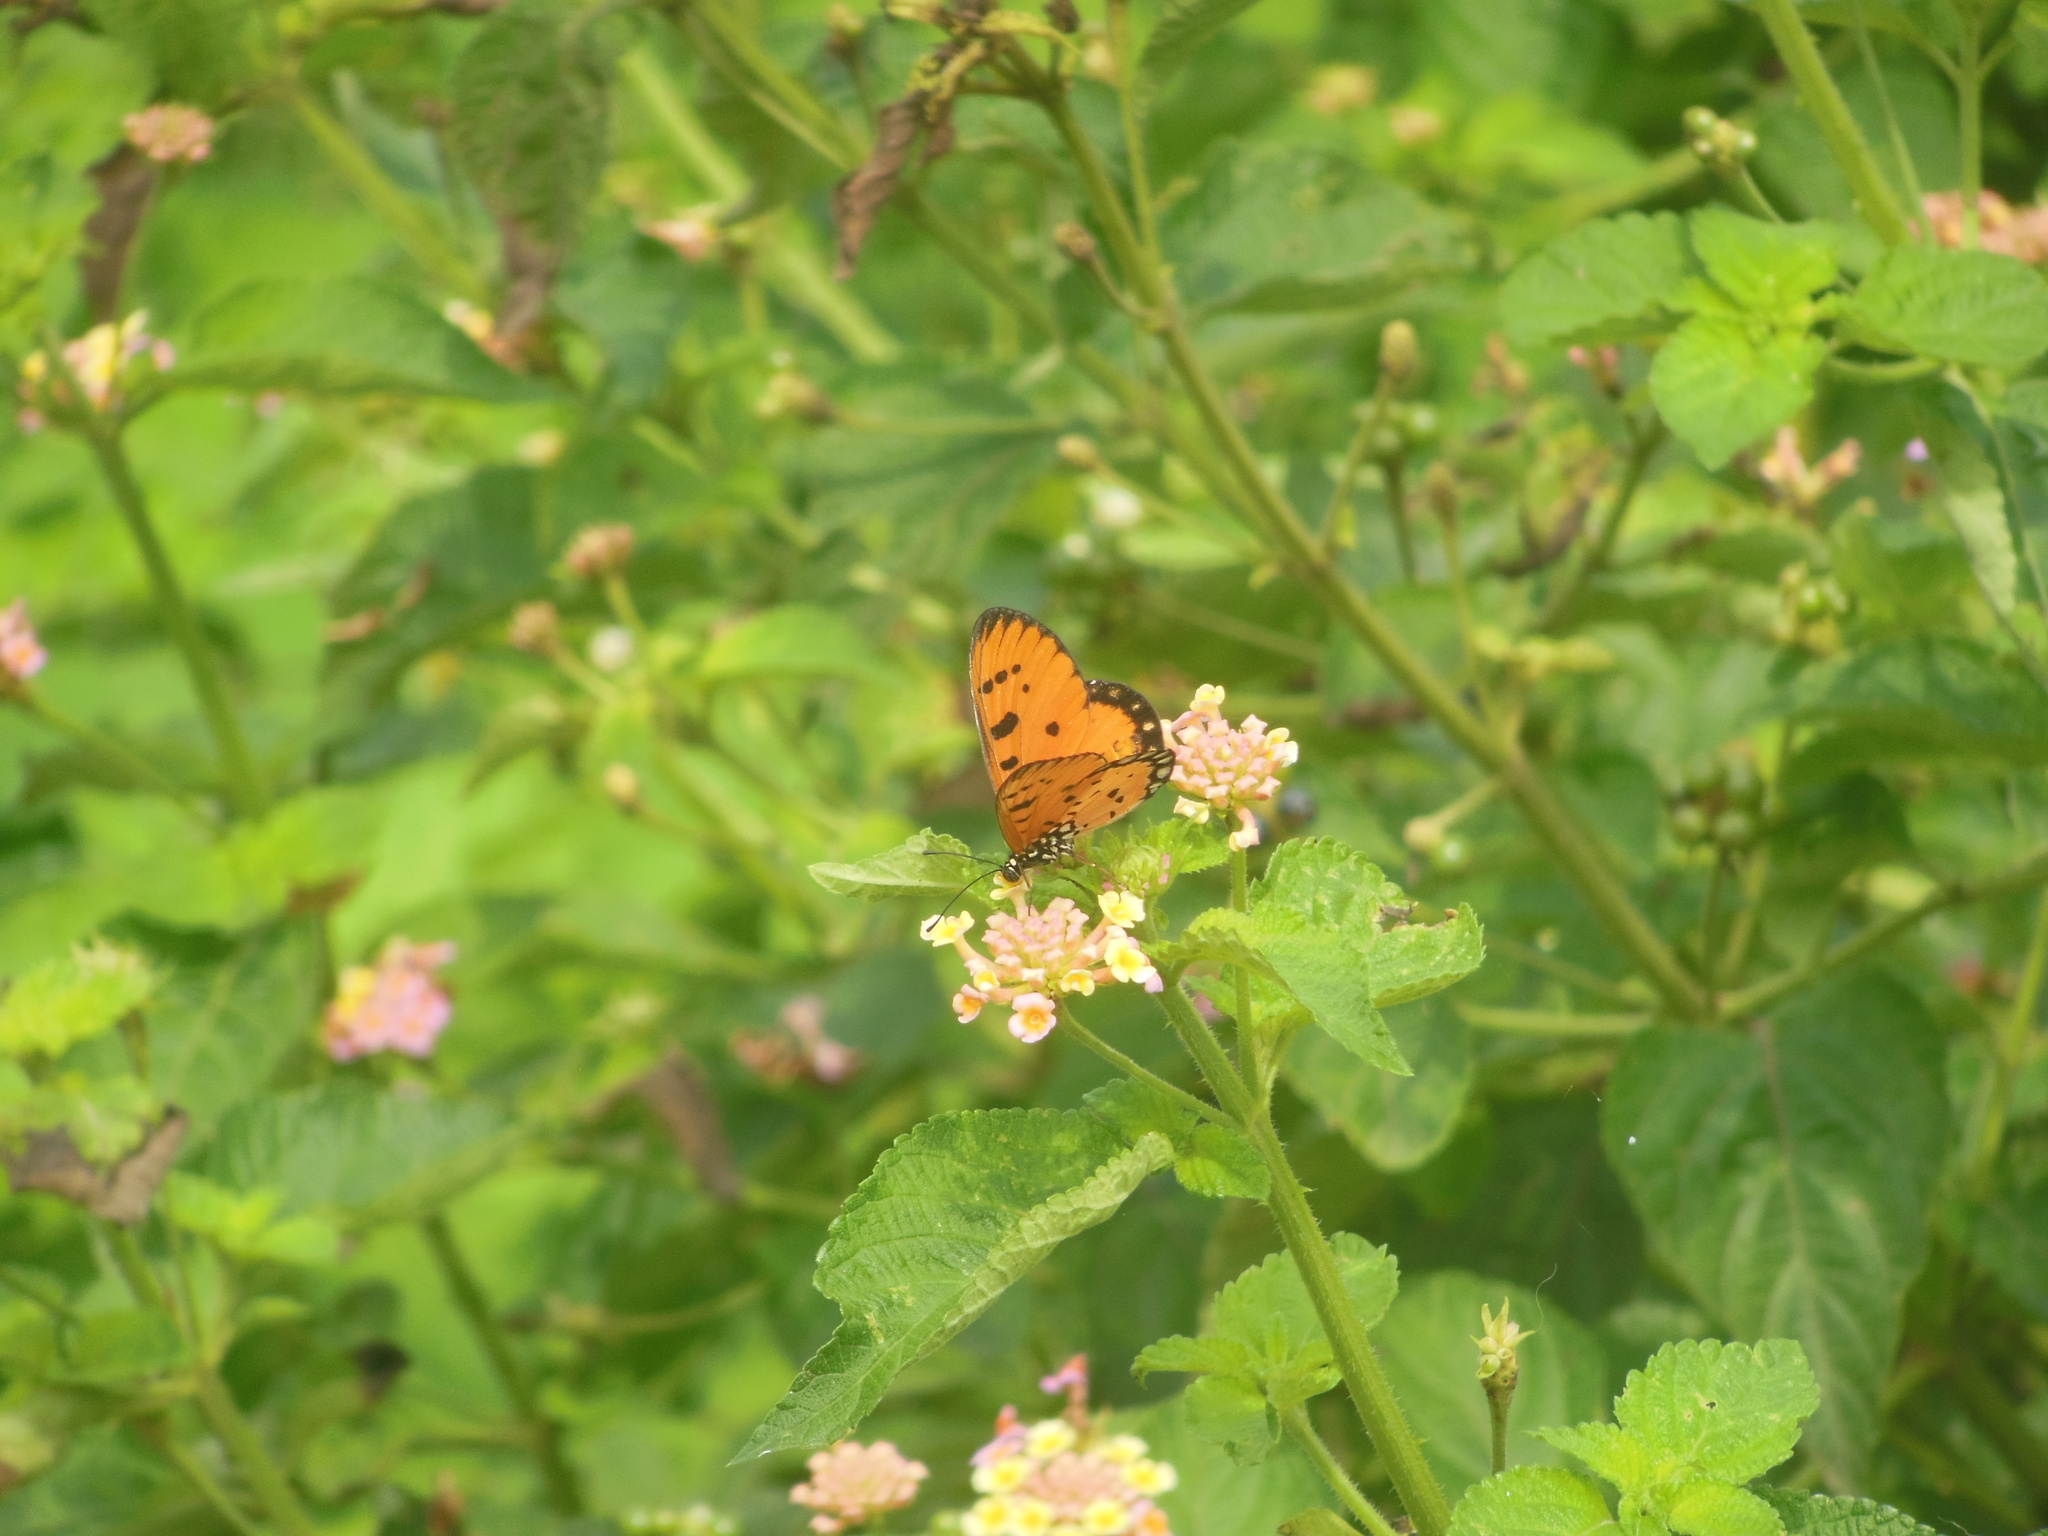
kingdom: Animalia
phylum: Arthropoda
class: Insecta
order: Lepidoptera
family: Nymphalidae
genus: Acraea
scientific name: Acraea terpsicore
